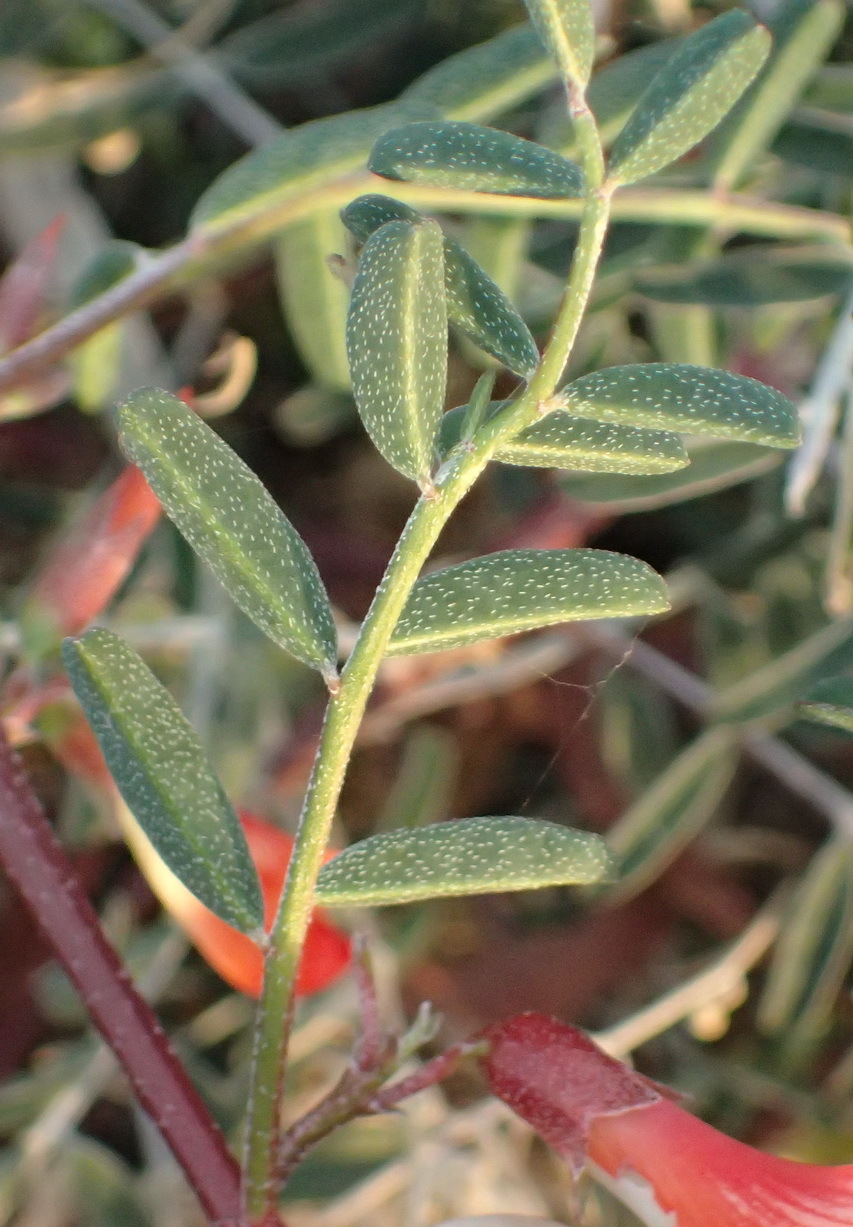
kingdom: Plantae
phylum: Tracheophyta
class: Magnoliopsida
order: Fabales
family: Fabaceae
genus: Lessertia
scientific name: Lessertia frutescens
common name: Balloon-pea
